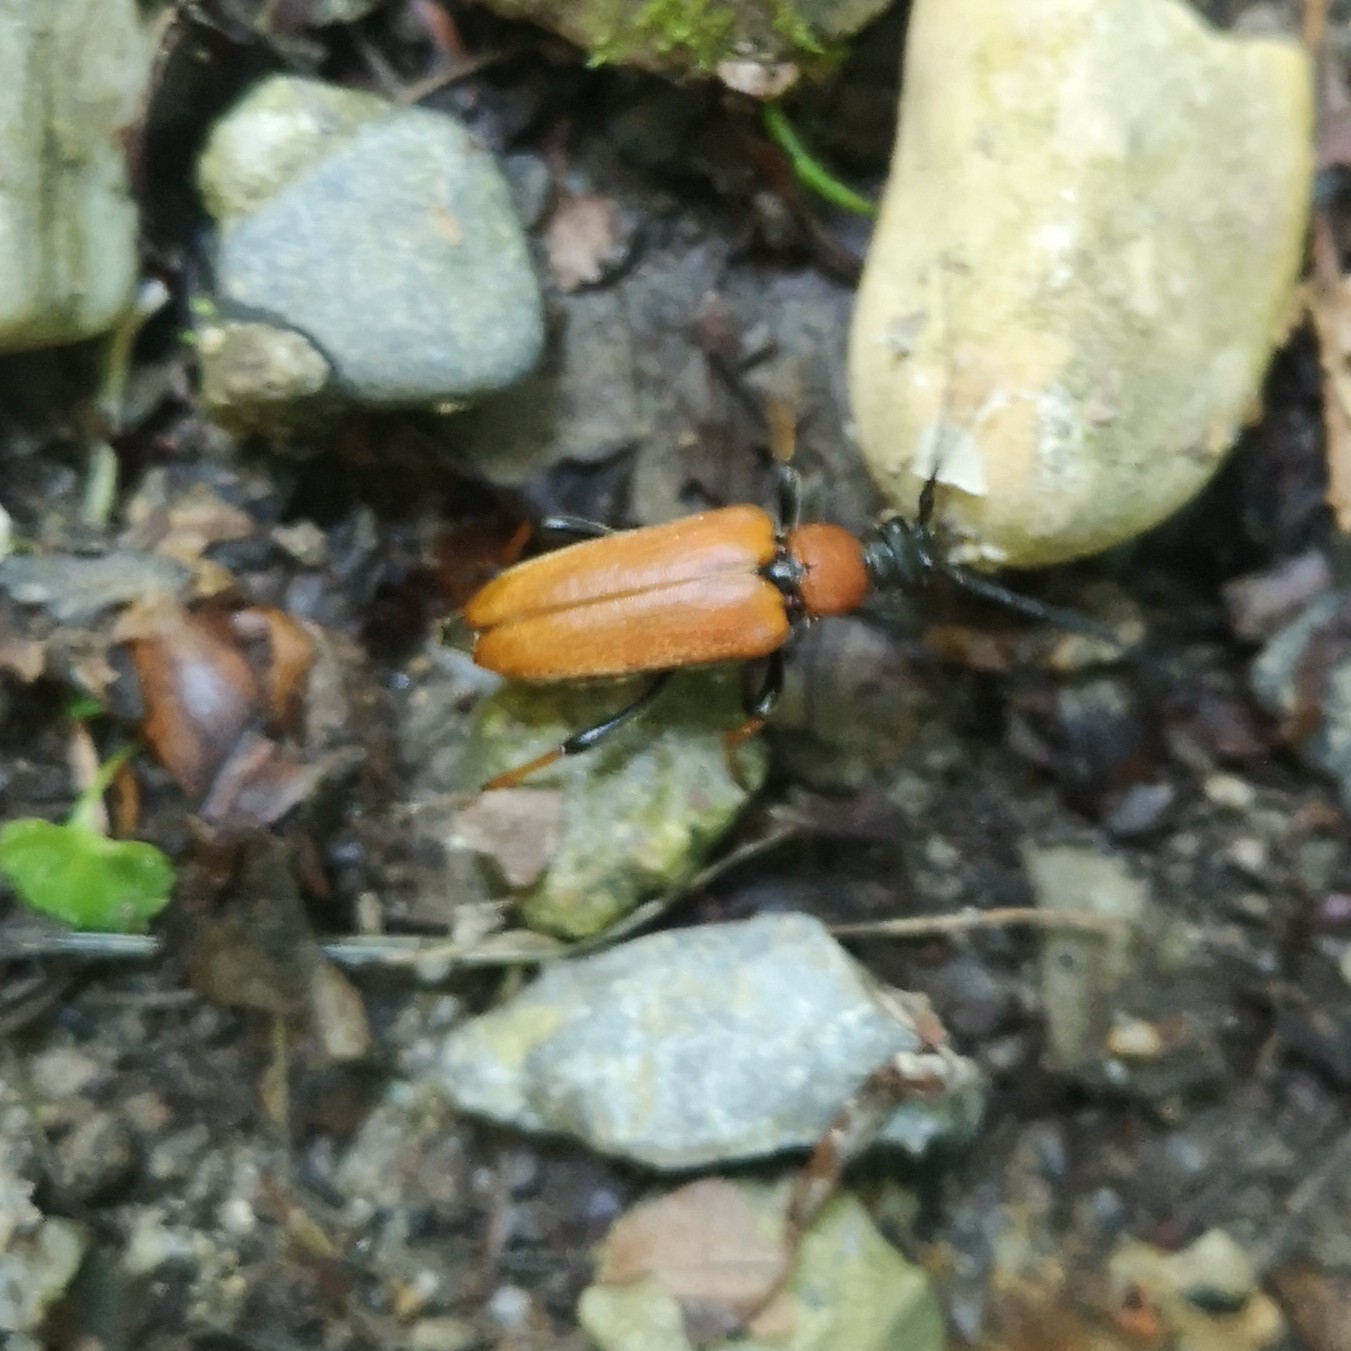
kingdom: Animalia
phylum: Arthropoda
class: Insecta
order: Coleoptera
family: Cerambycidae
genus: Stictoleptura
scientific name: Stictoleptura rubra
